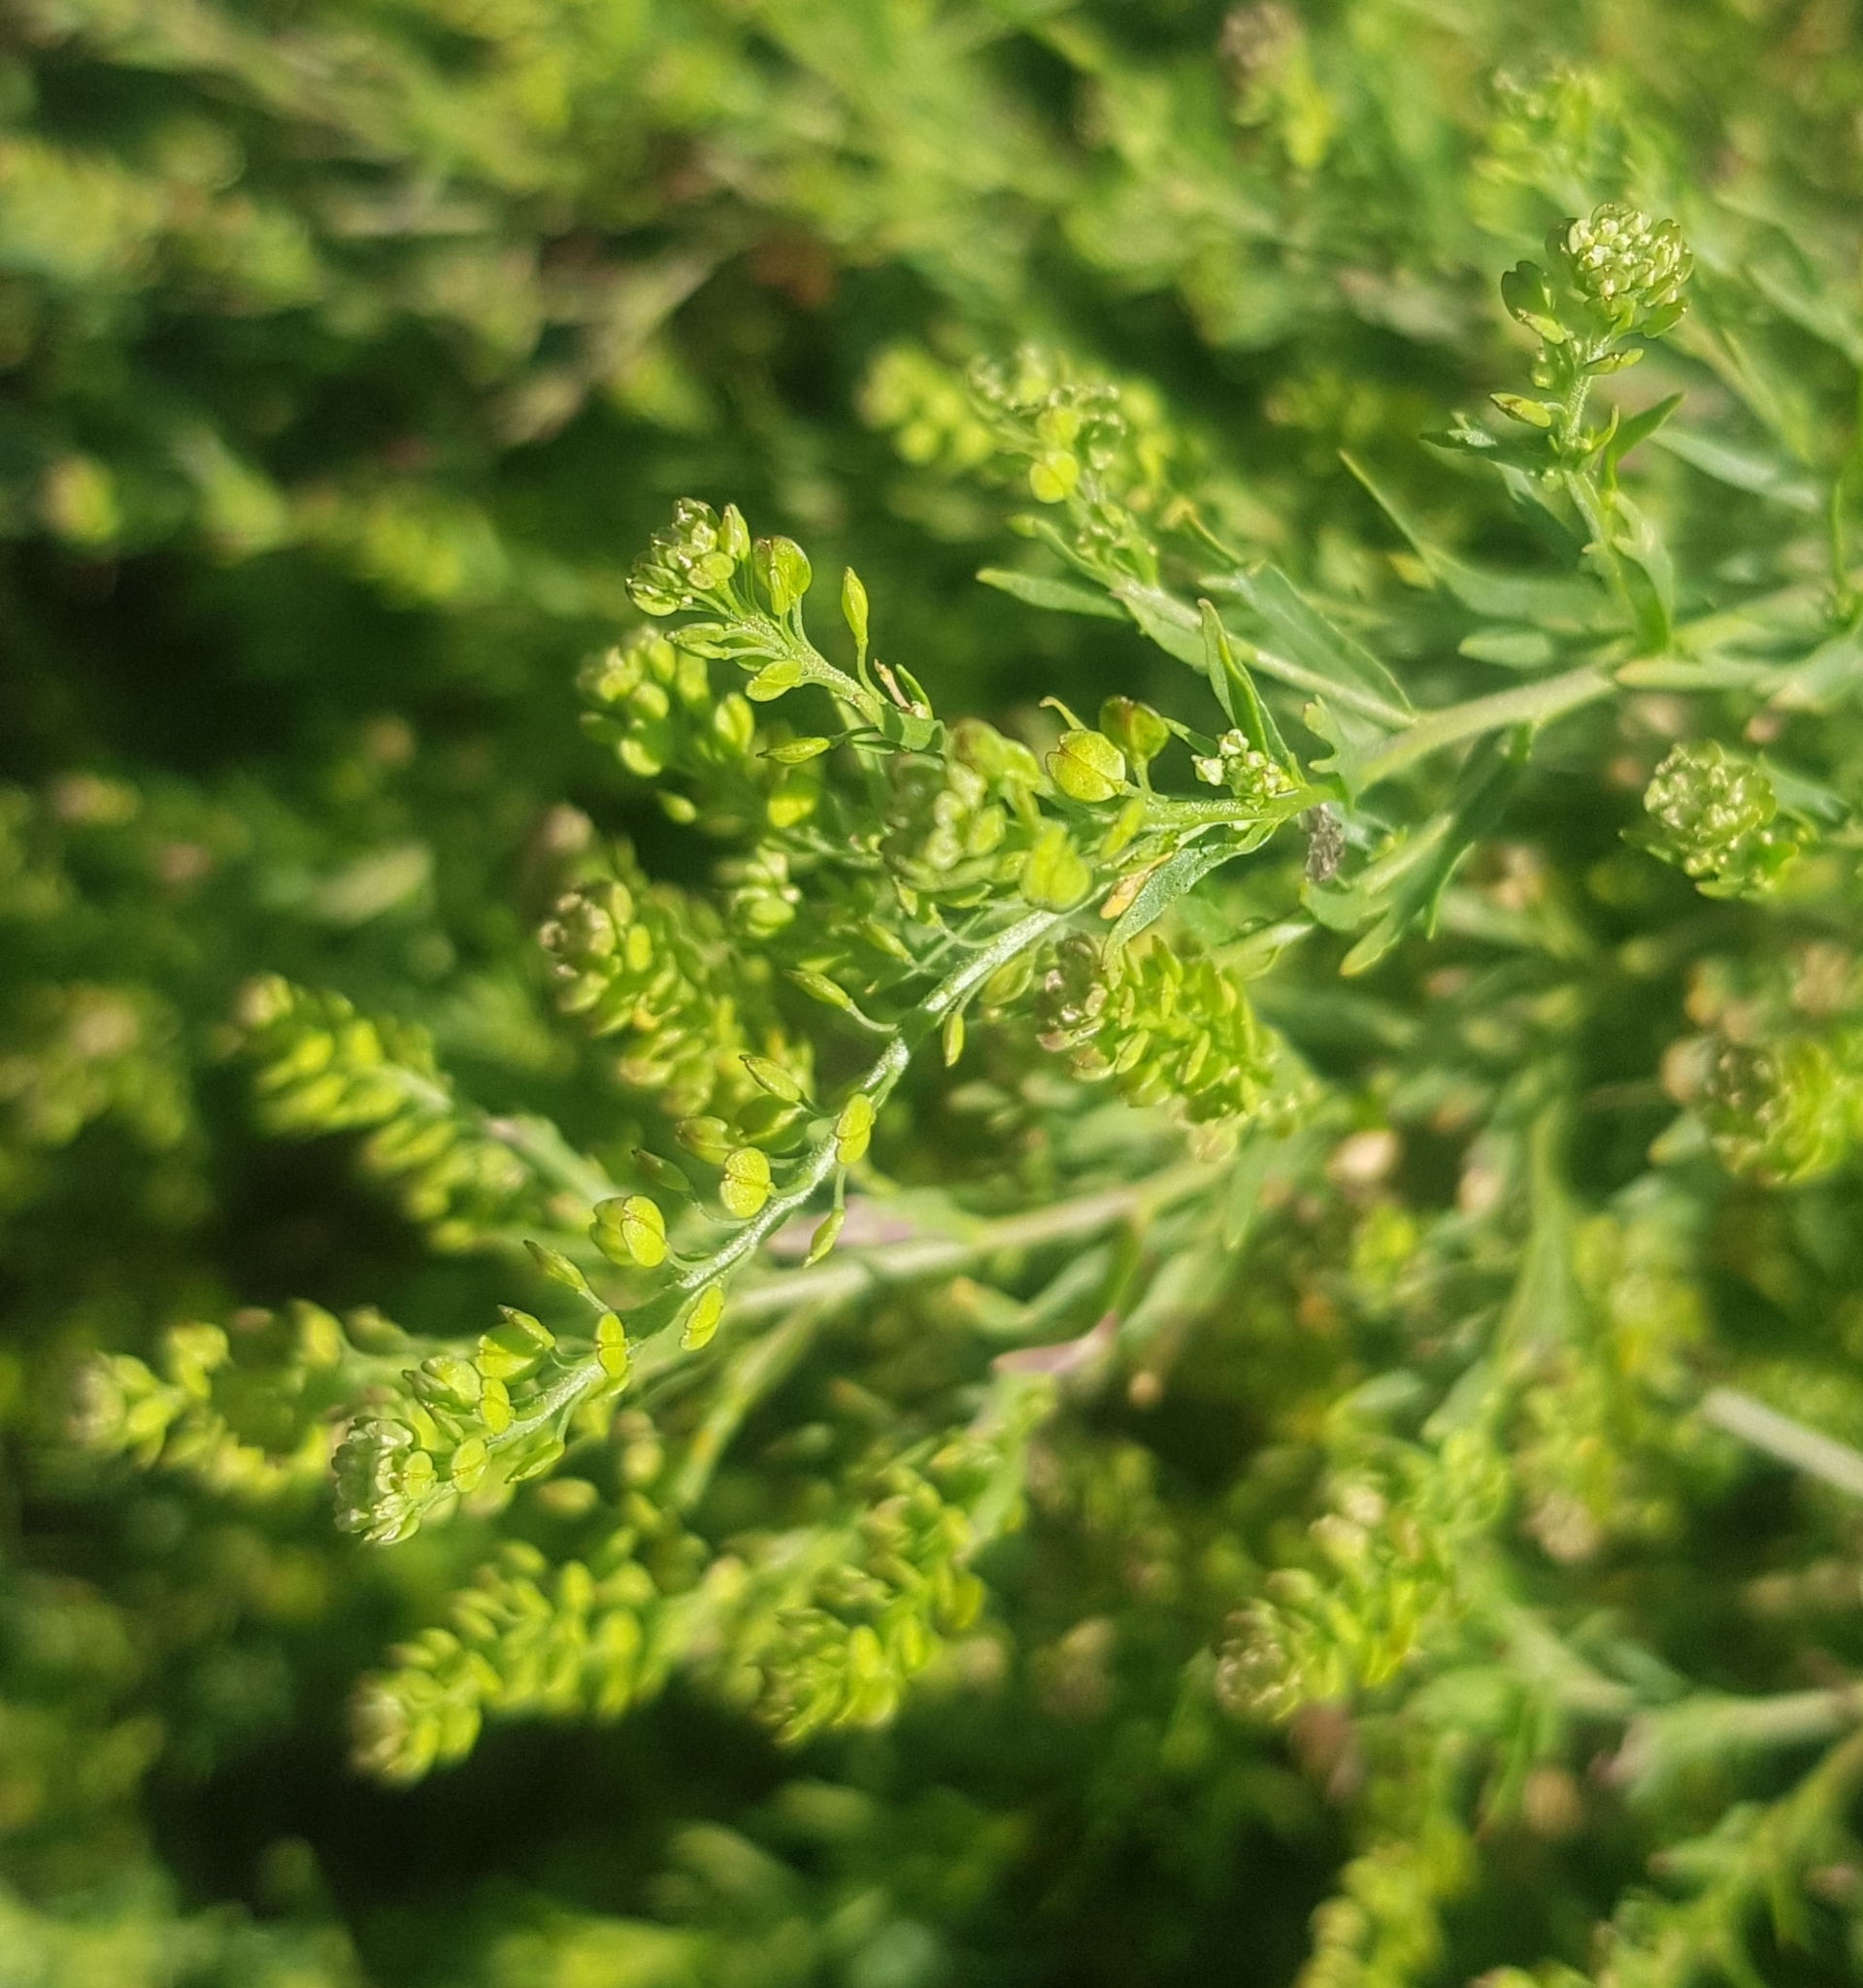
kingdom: Plantae
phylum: Tracheophyta
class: Magnoliopsida
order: Brassicales
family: Brassicaceae
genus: Lepidium
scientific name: Lepidium densiflorum
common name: Miner's pepperwort
